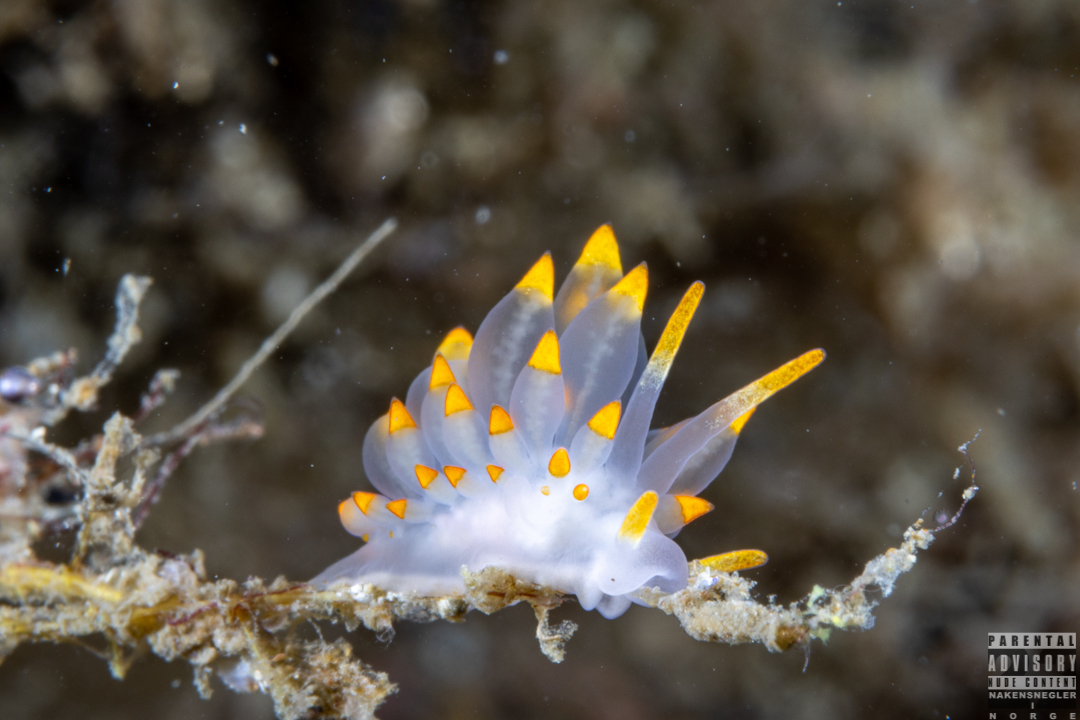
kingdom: Animalia
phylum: Mollusca
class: Gastropoda
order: Nudibranchia
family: Eubranchidae
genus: Amphorina
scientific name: Amphorina farrani
